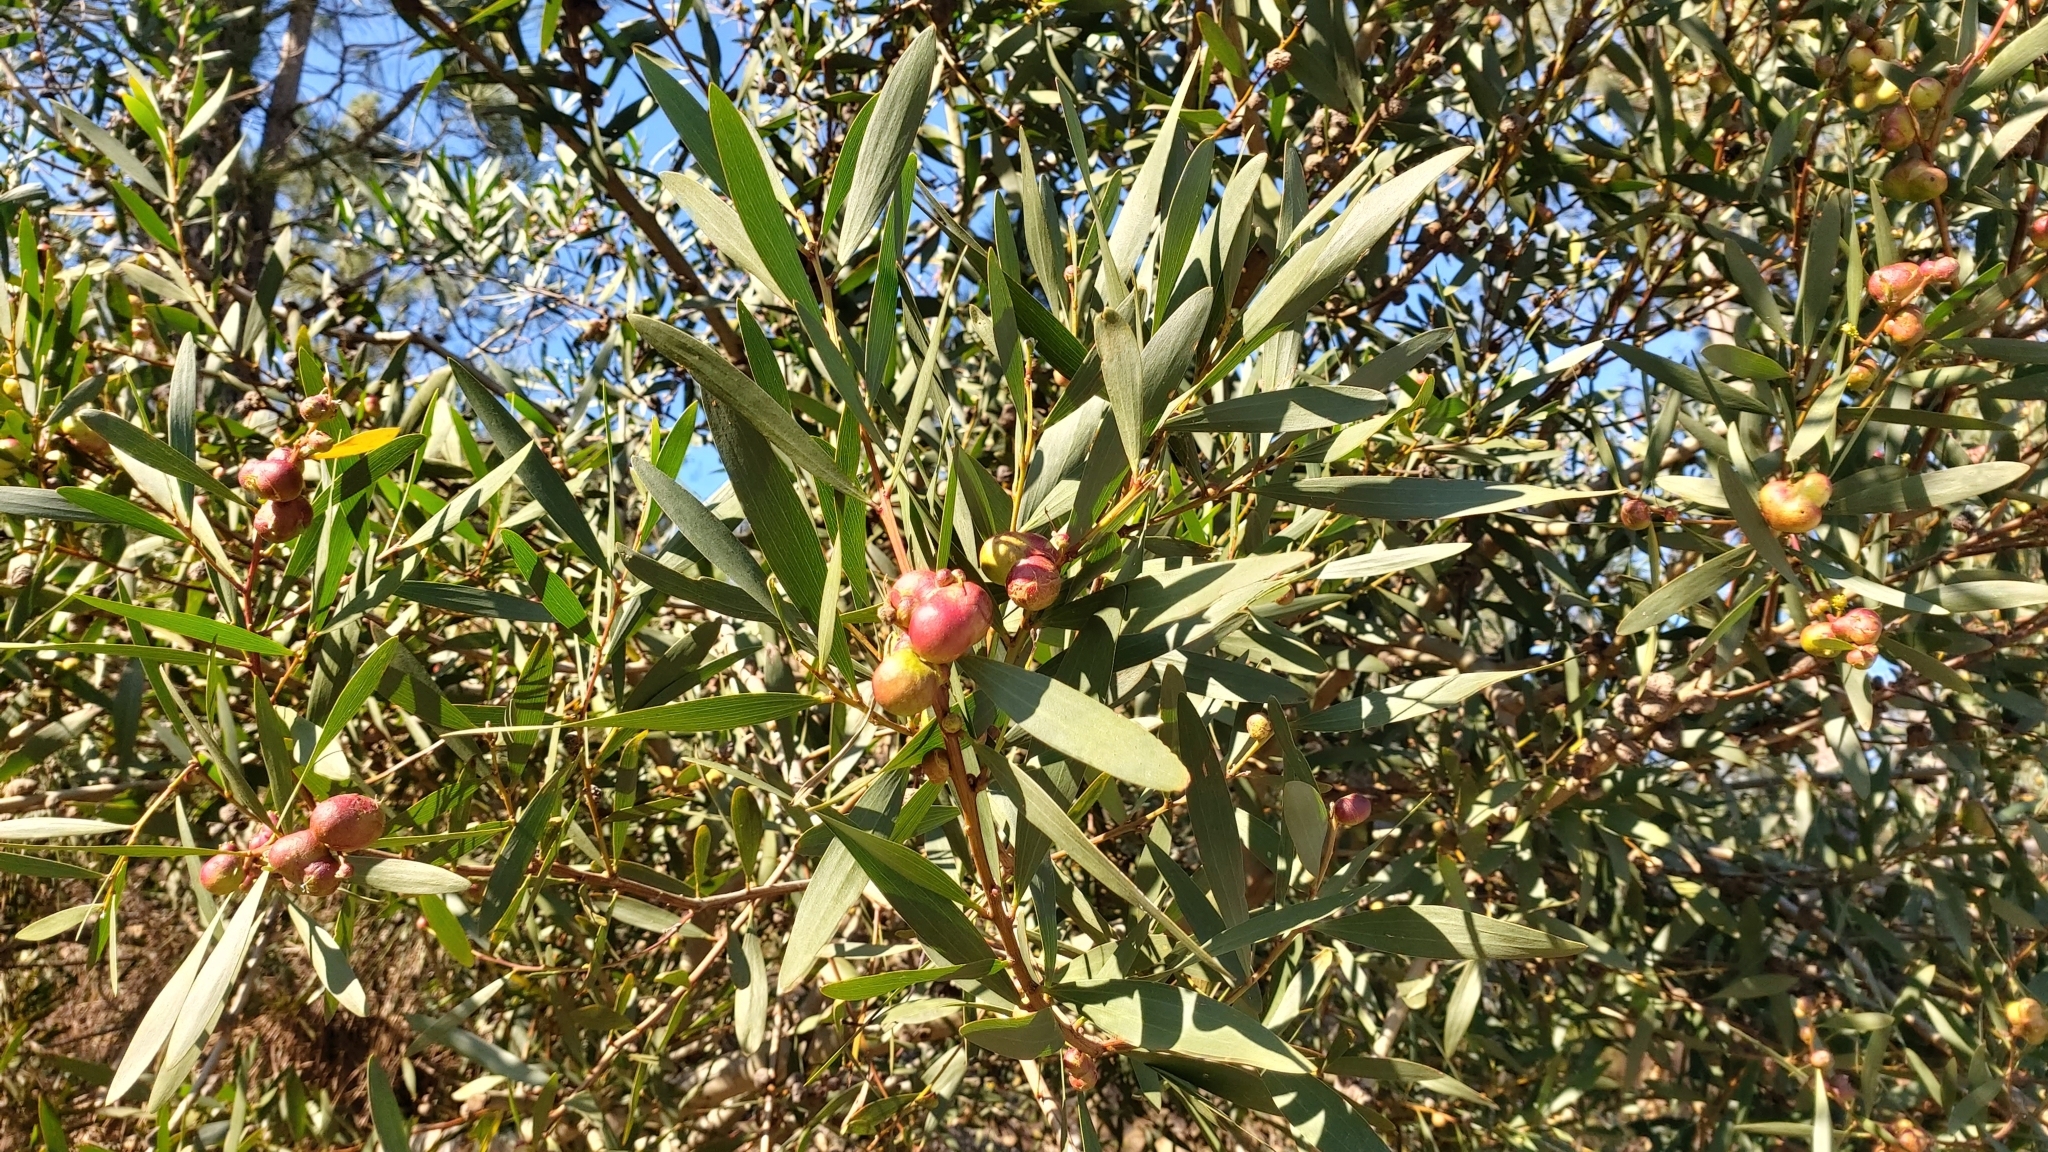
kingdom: Animalia
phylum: Arthropoda
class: Insecta
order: Hymenoptera
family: Pteromalidae
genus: Trichilogaster
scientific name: Trichilogaster acaciaelongifoliae
